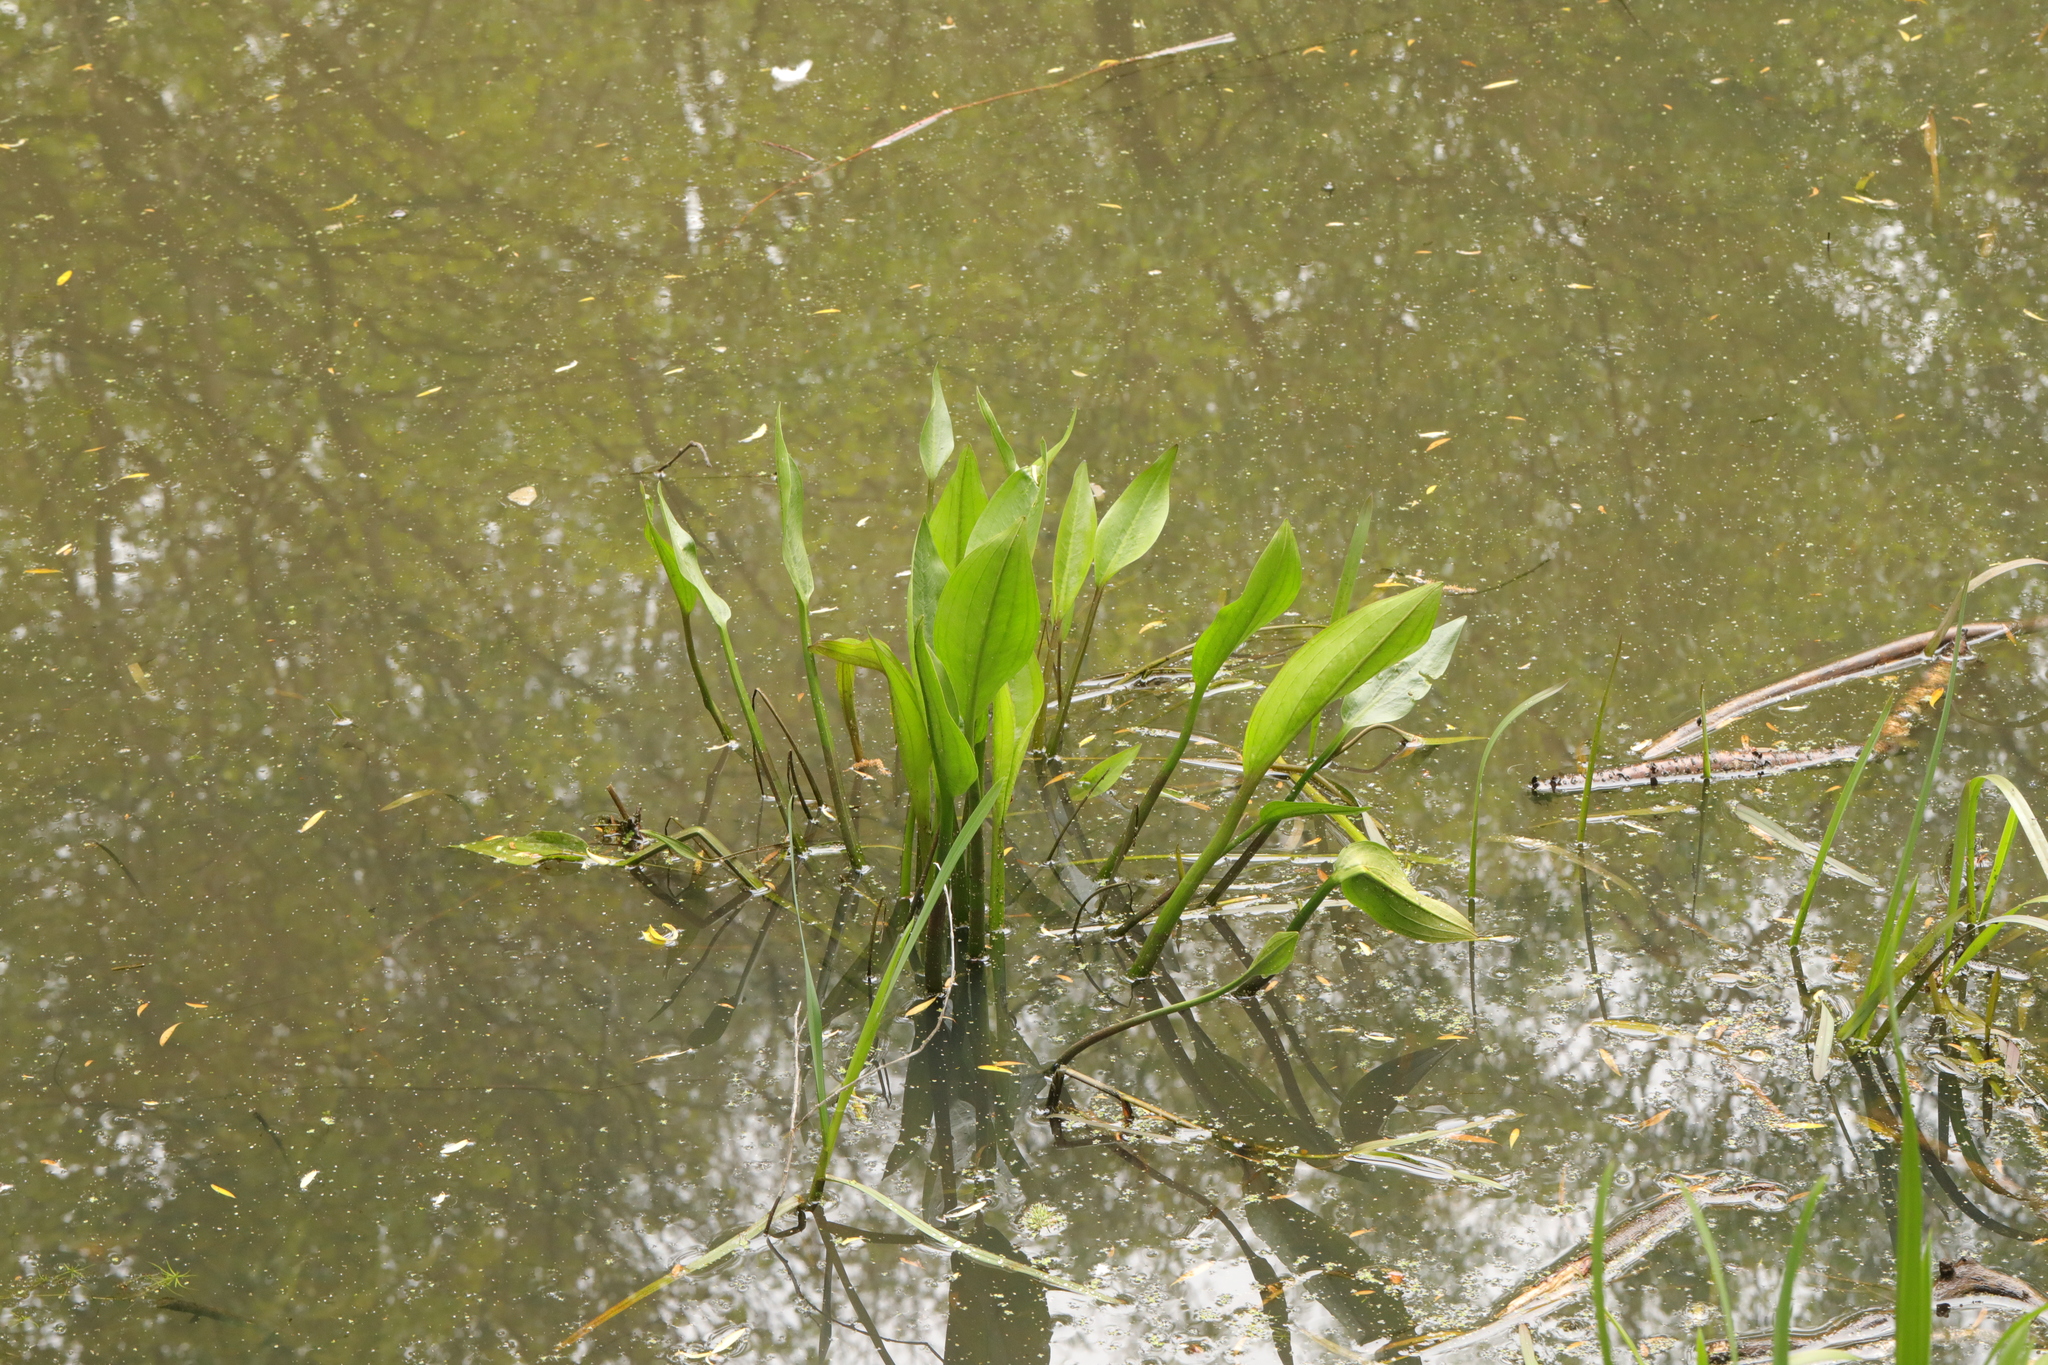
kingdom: Plantae
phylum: Tracheophyta
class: Liliopsida
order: Alismatales
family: Alismataceae
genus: Alisma
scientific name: Alisma plantago-aquatica
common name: Water-plantain
